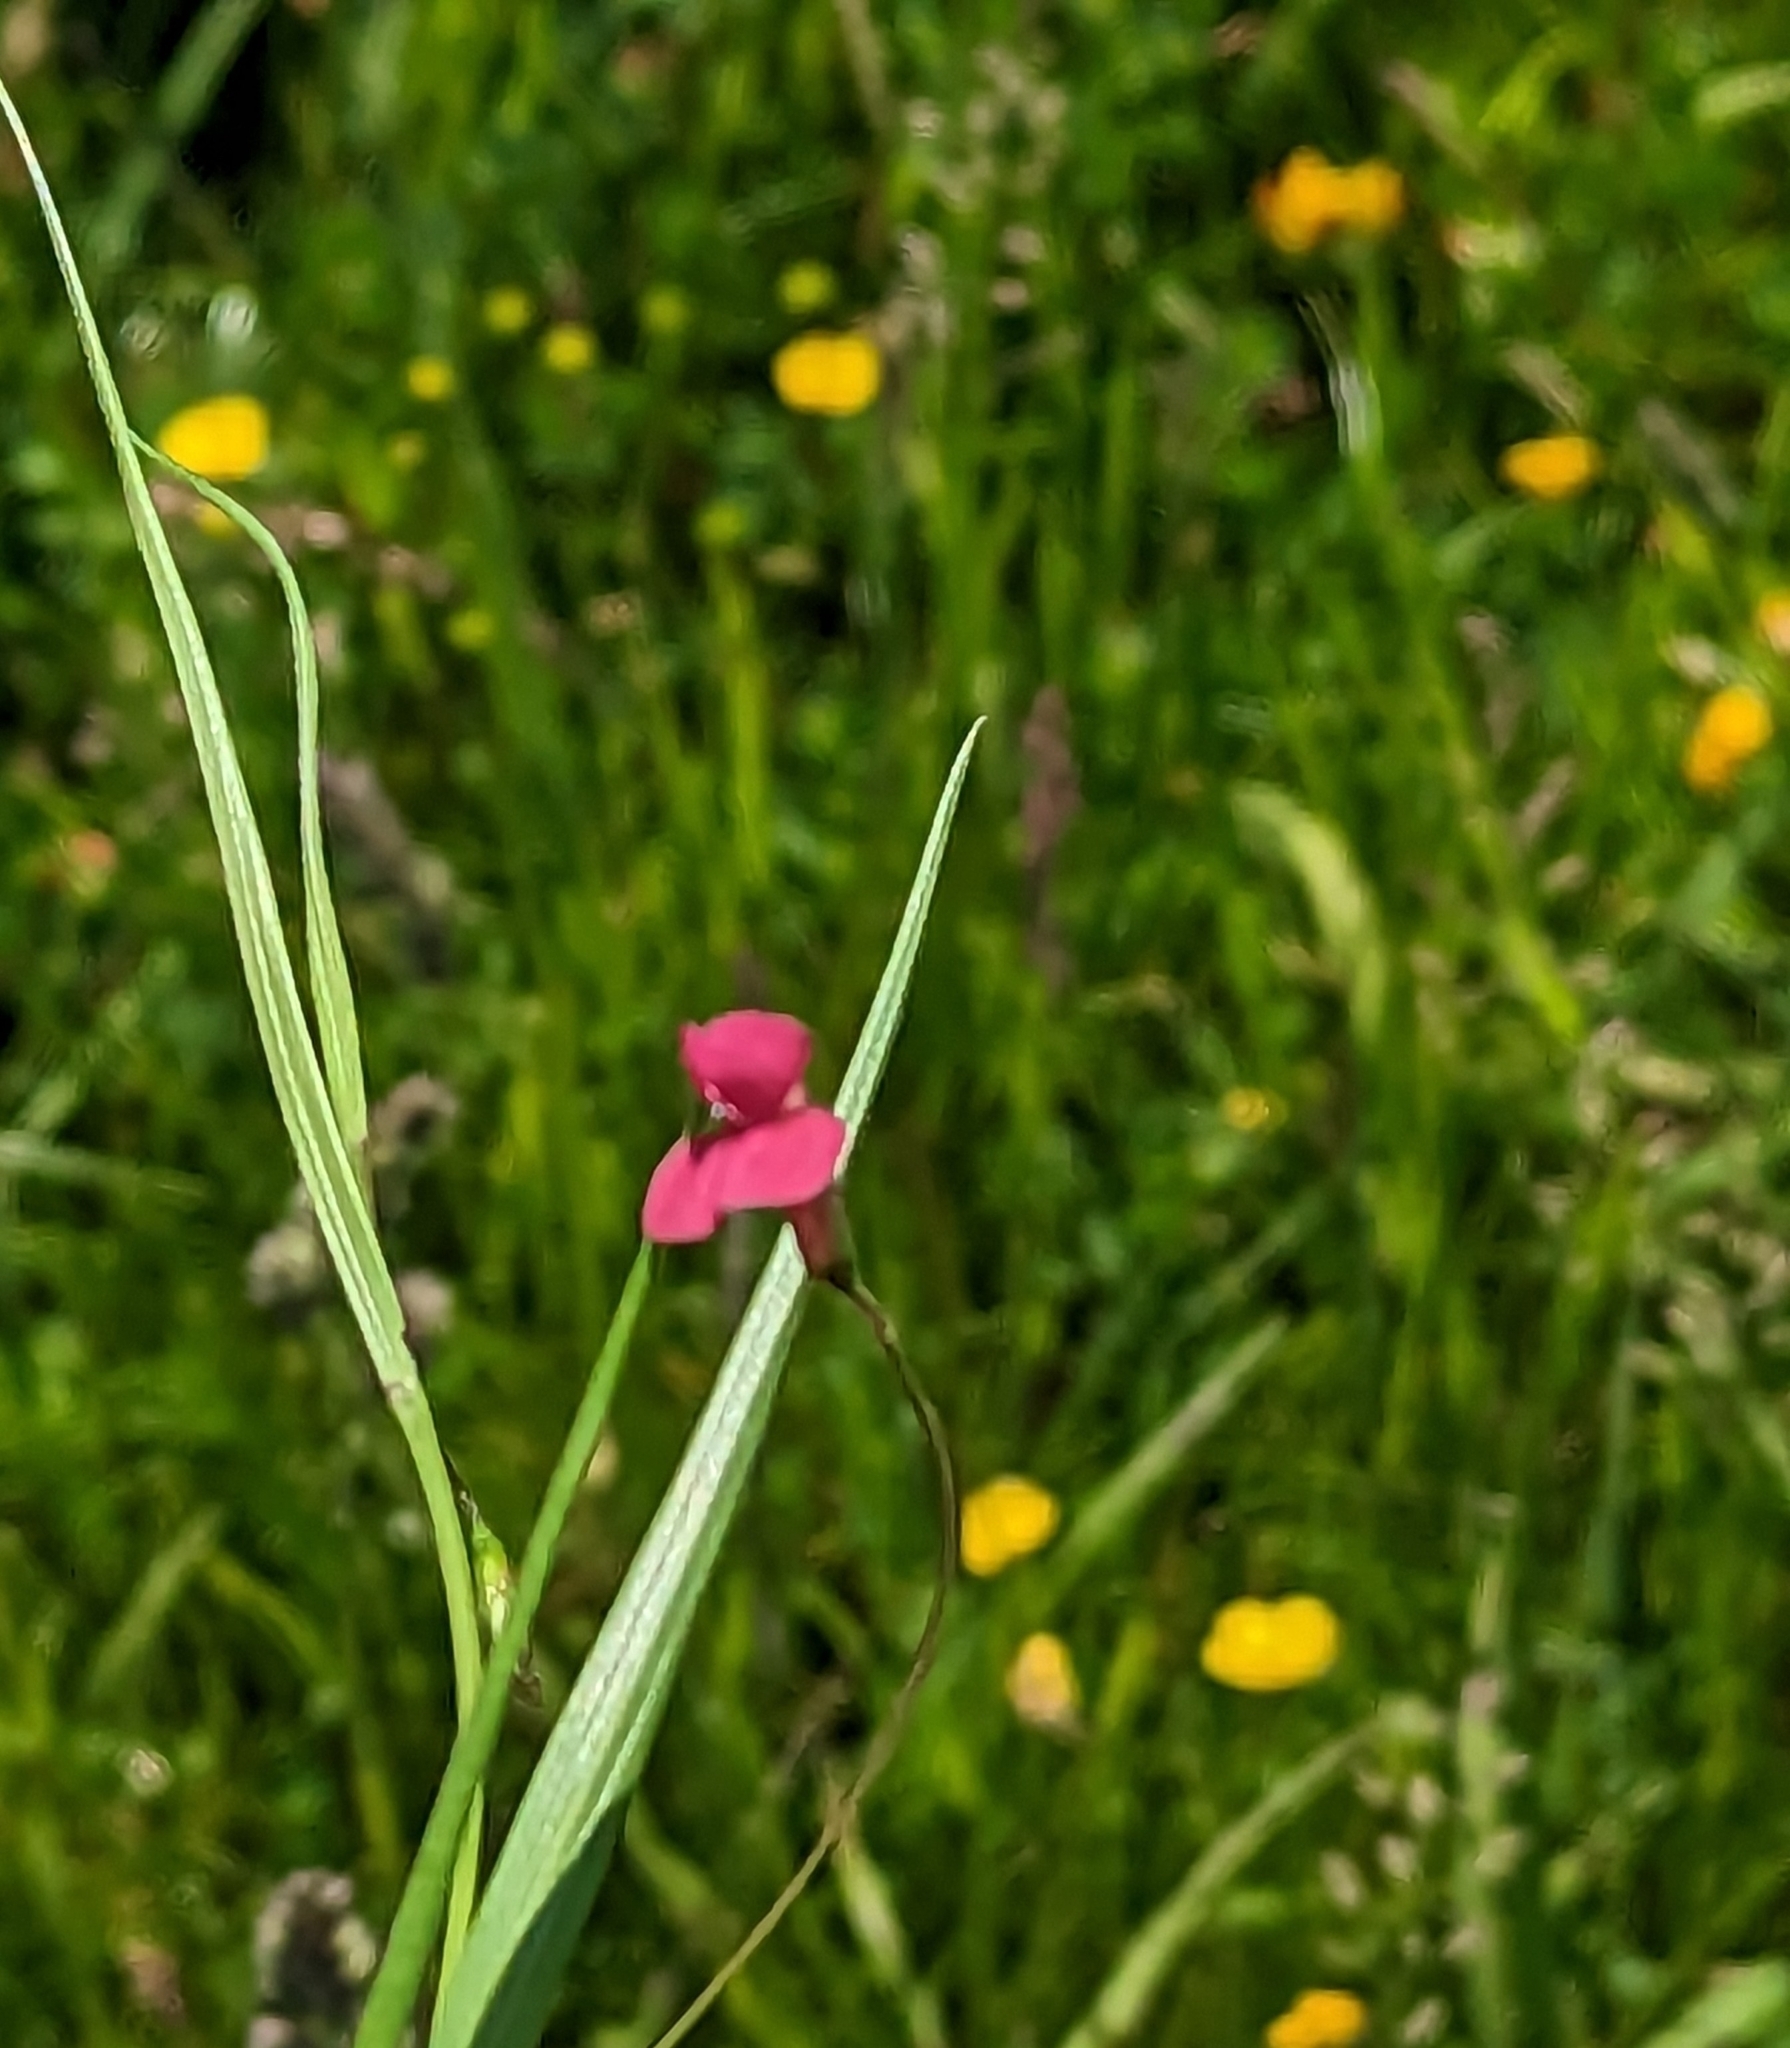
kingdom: Plantae
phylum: Tracheophyta
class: Magnoliopsida
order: Fabales
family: Fabaceae
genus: Lathyrus
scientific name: Lathyrus nissolia
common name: Grass vetchling
